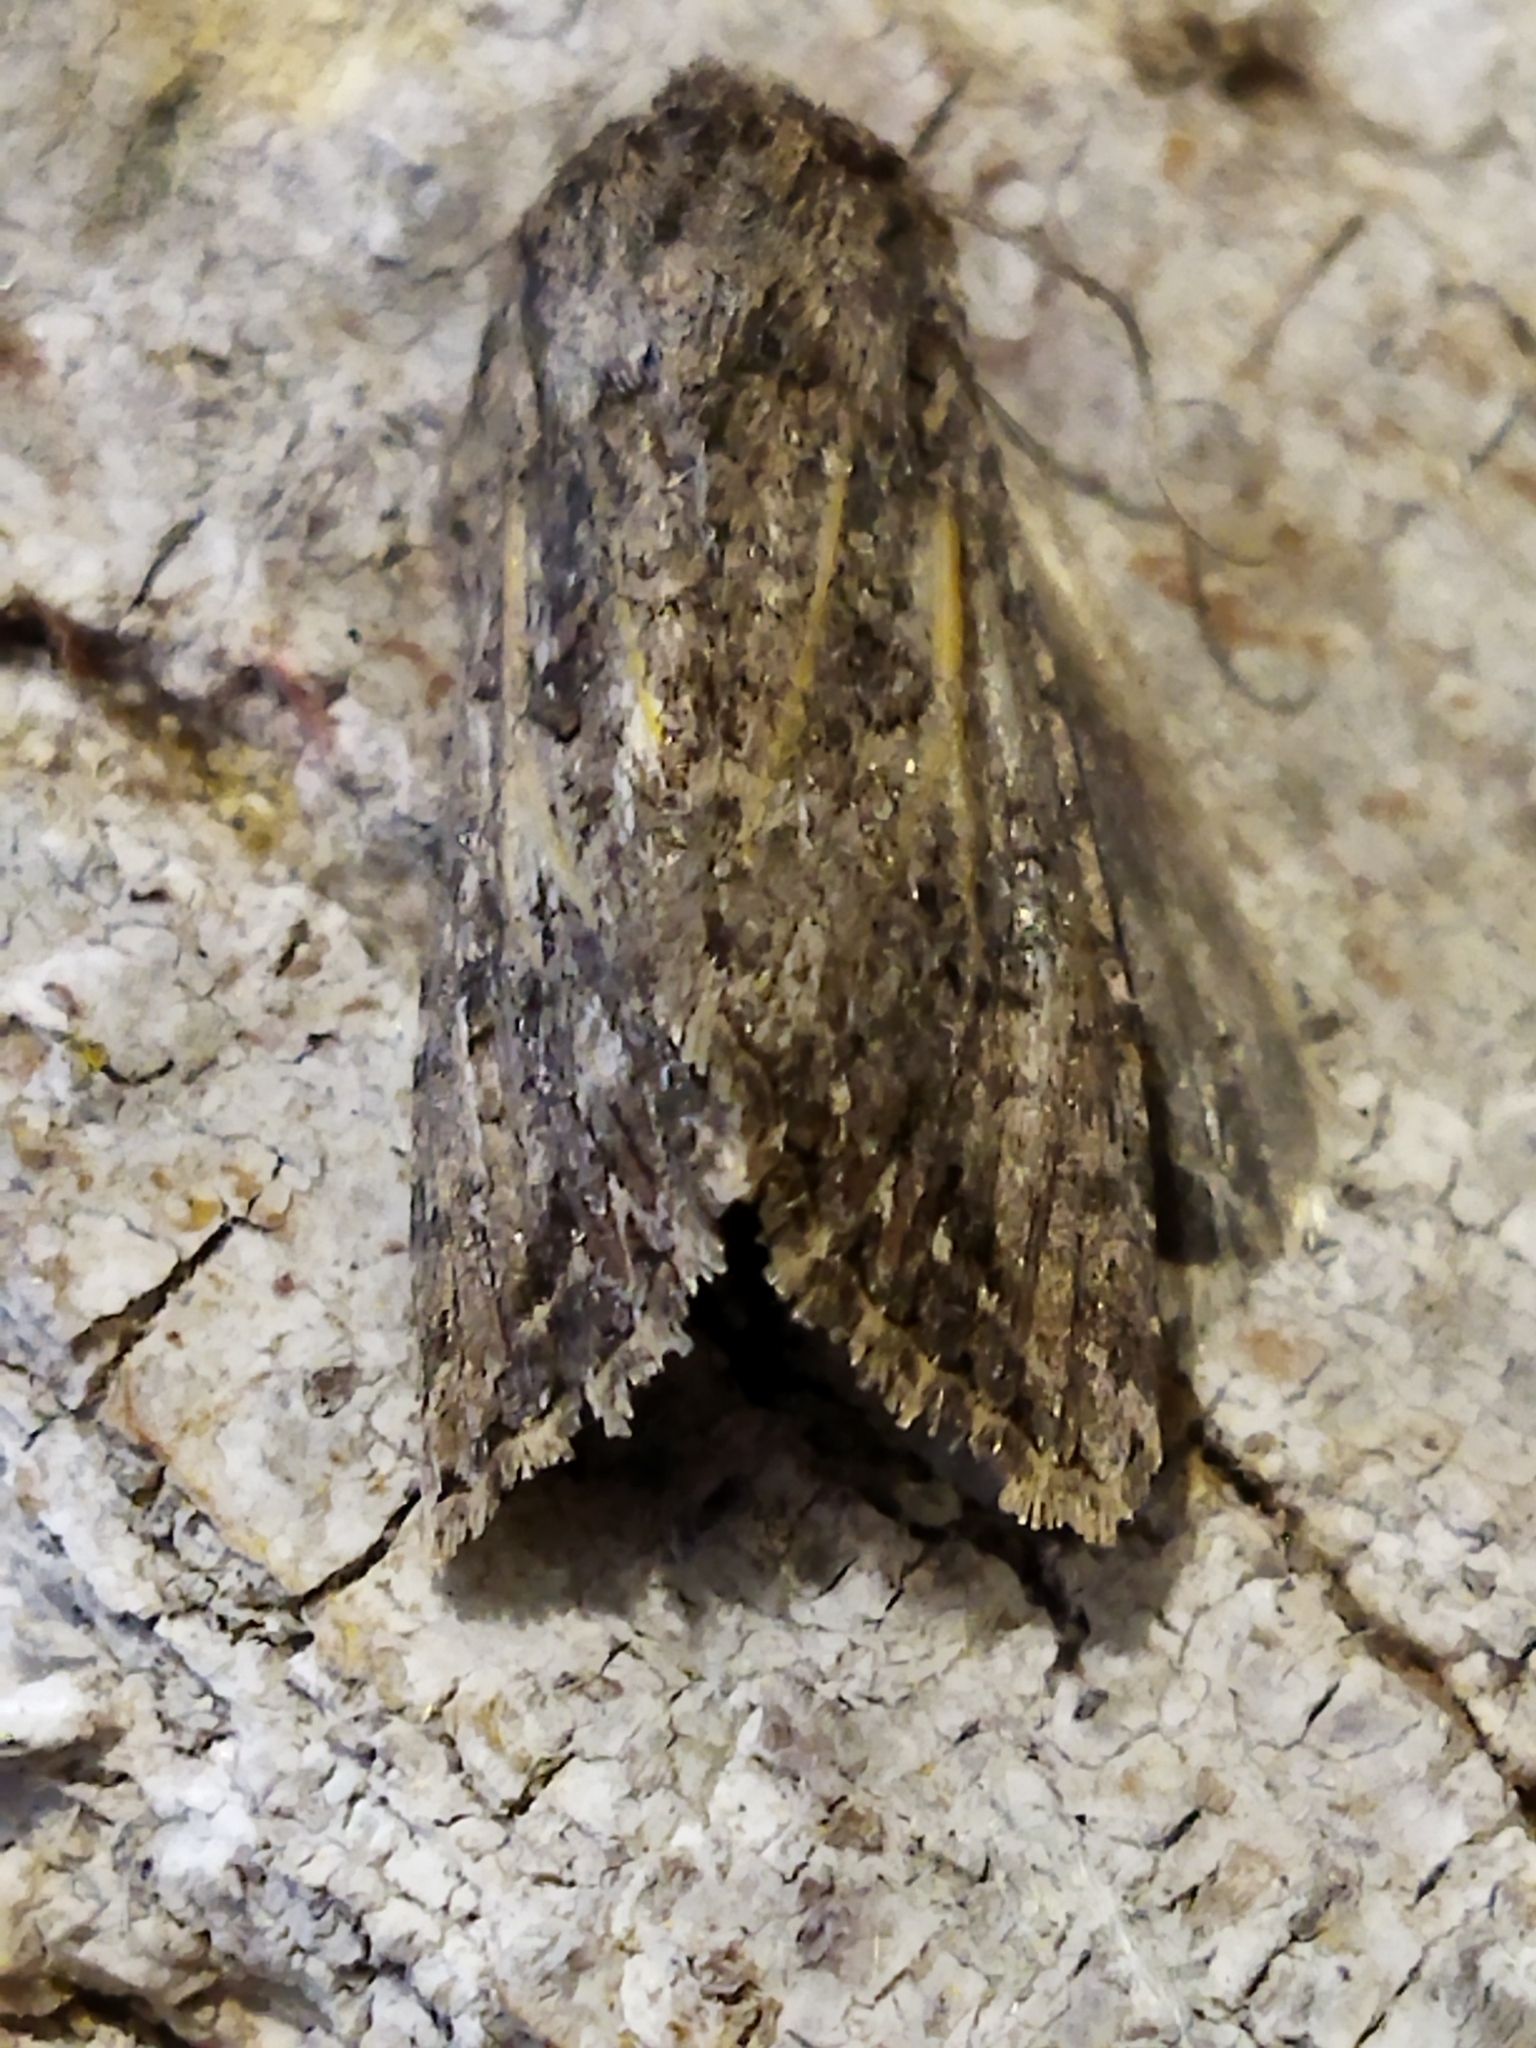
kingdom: Animalia
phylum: Arthropoda
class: Insecta
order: Lepidoptera
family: Noctuidae
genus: Anarta
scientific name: Anarta trifolii
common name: Clover cutworm moth
